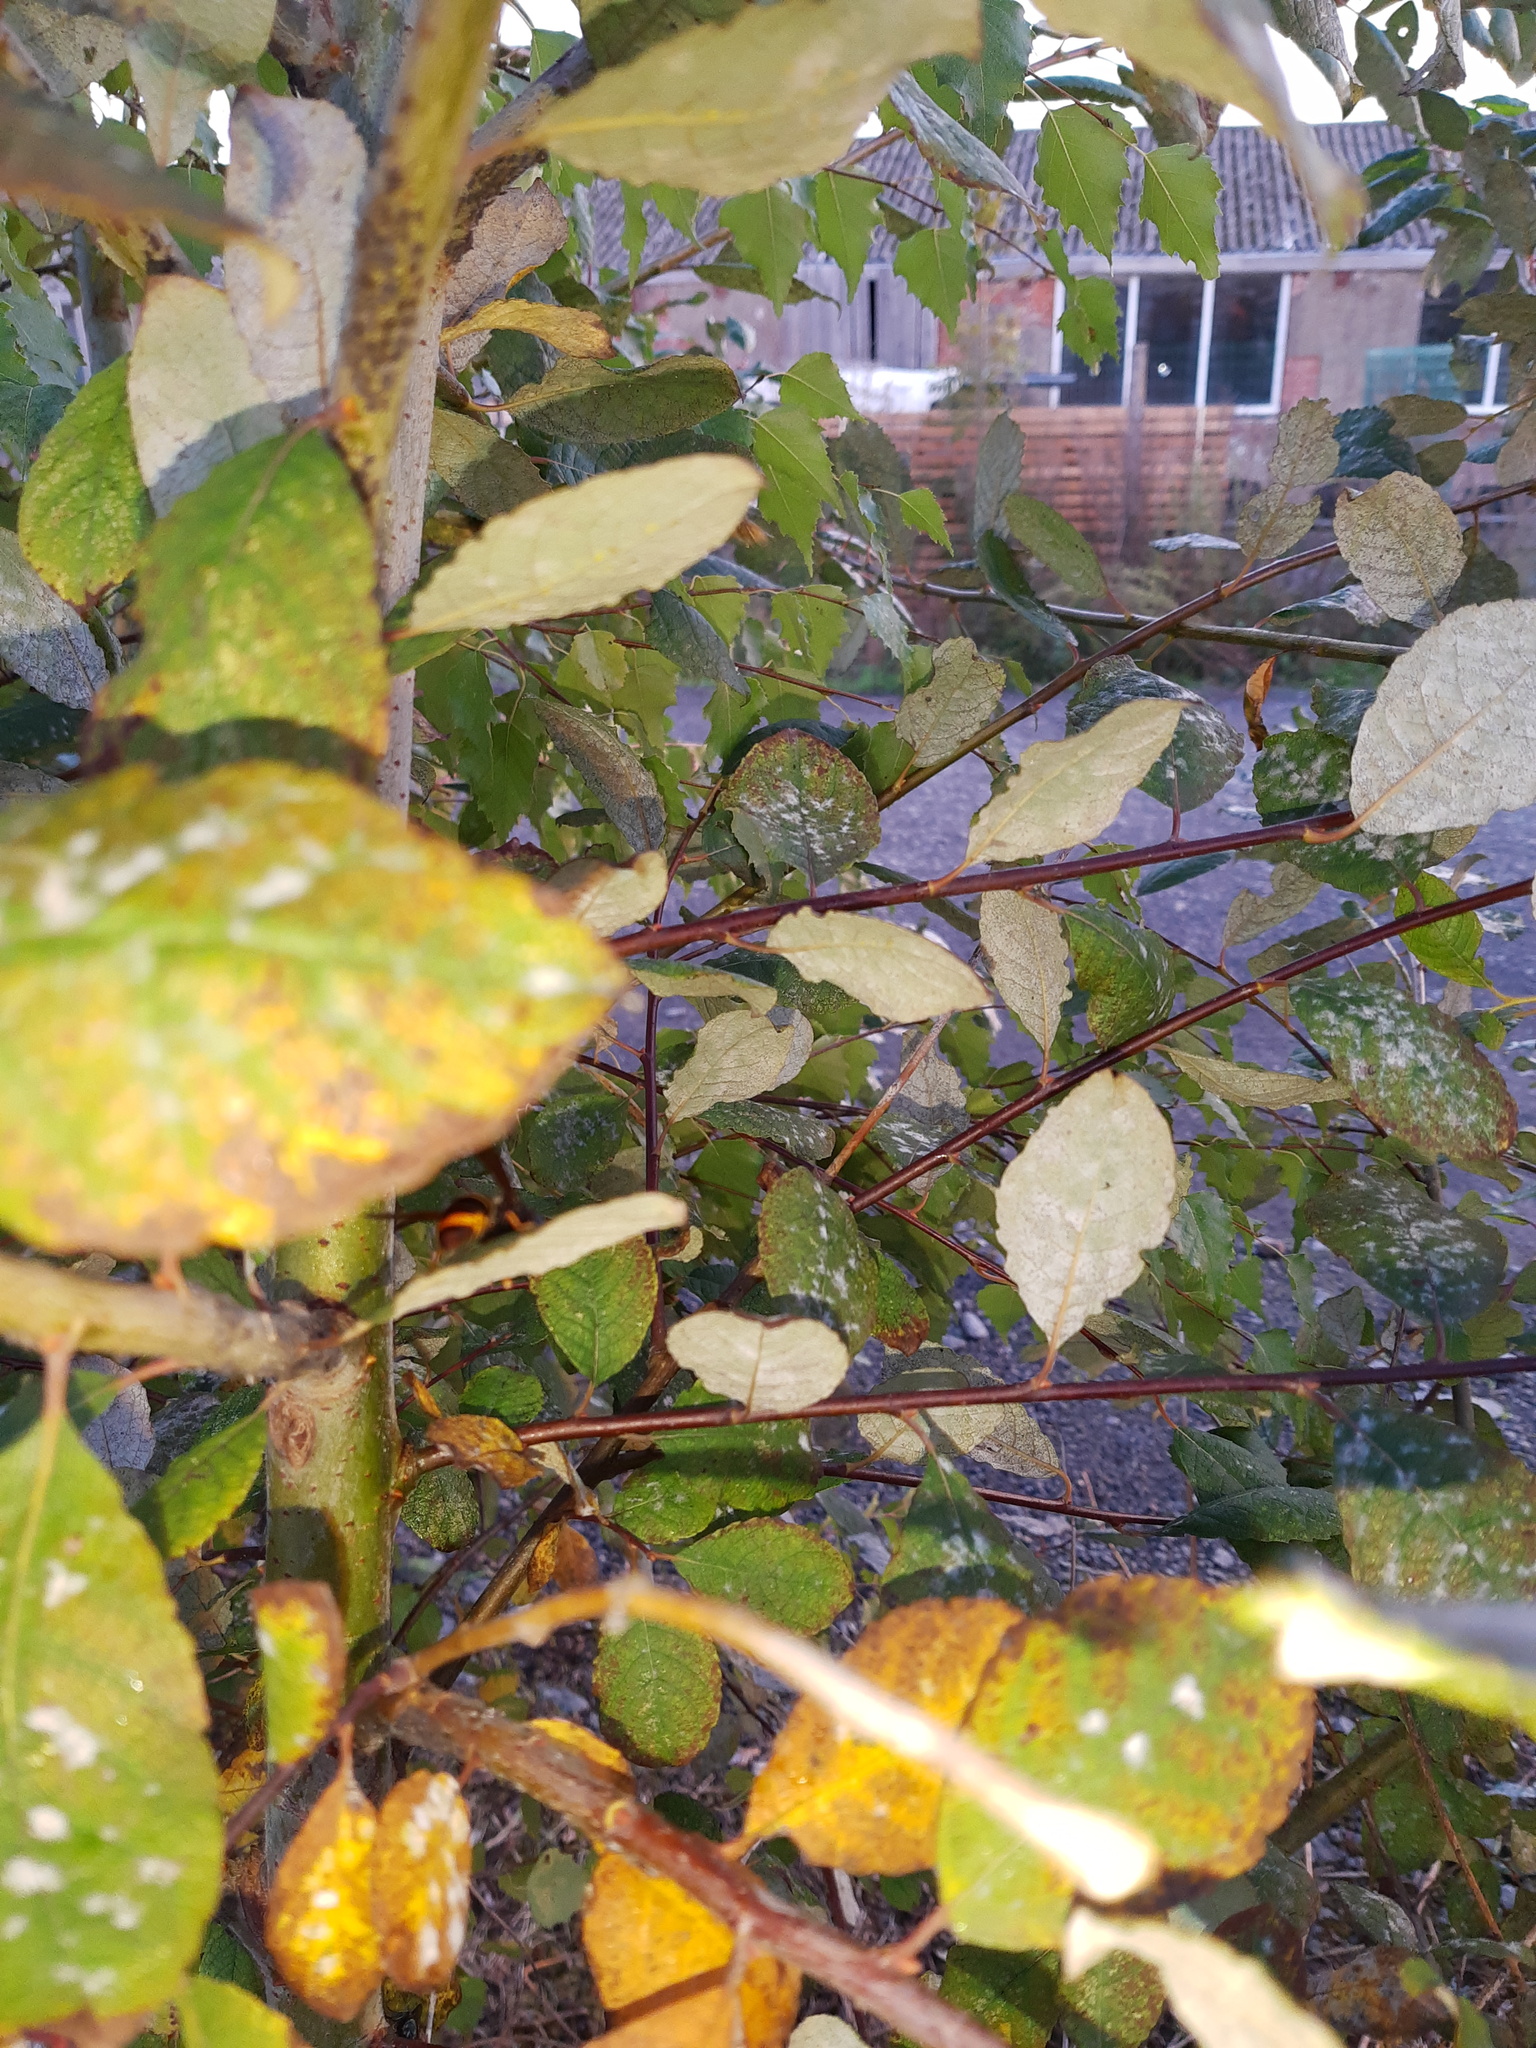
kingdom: Animalia
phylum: Arthropoda
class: Insecta
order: Hymenoptera
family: Vespidae
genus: Vespa
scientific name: Vespa velutina
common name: Asian hornet
